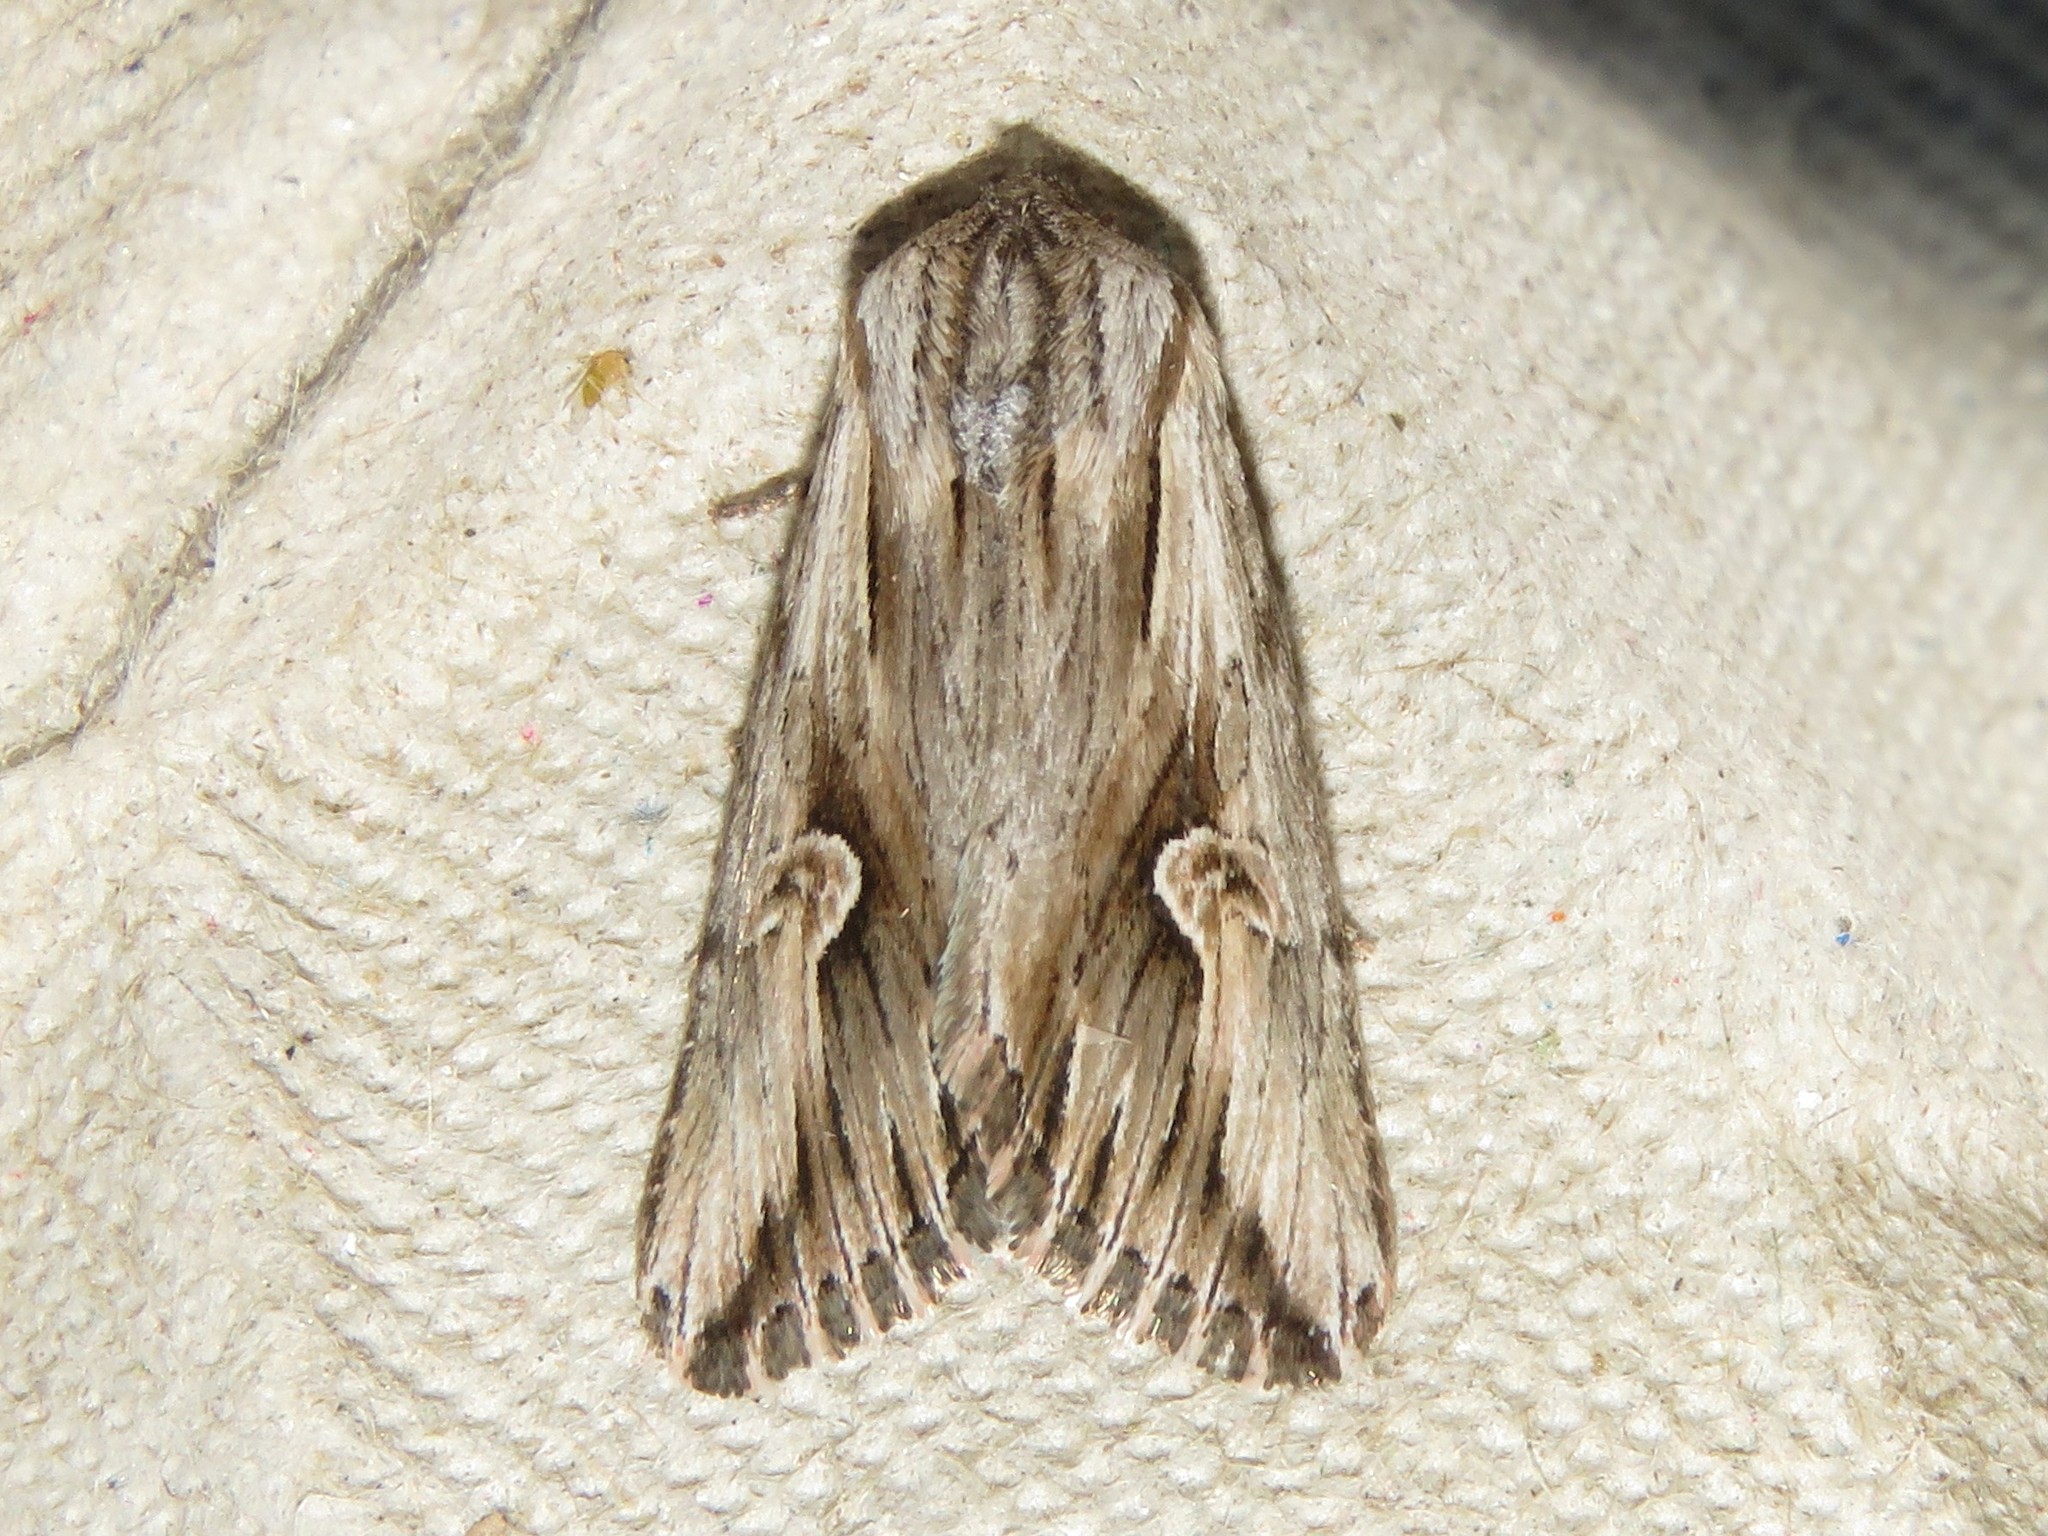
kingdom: Animalia
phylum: Arthropoda
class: Insecta
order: Lepidoptera
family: Noctuidae
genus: Nedra
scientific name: Nedra ramosula
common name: Gray half-spot
